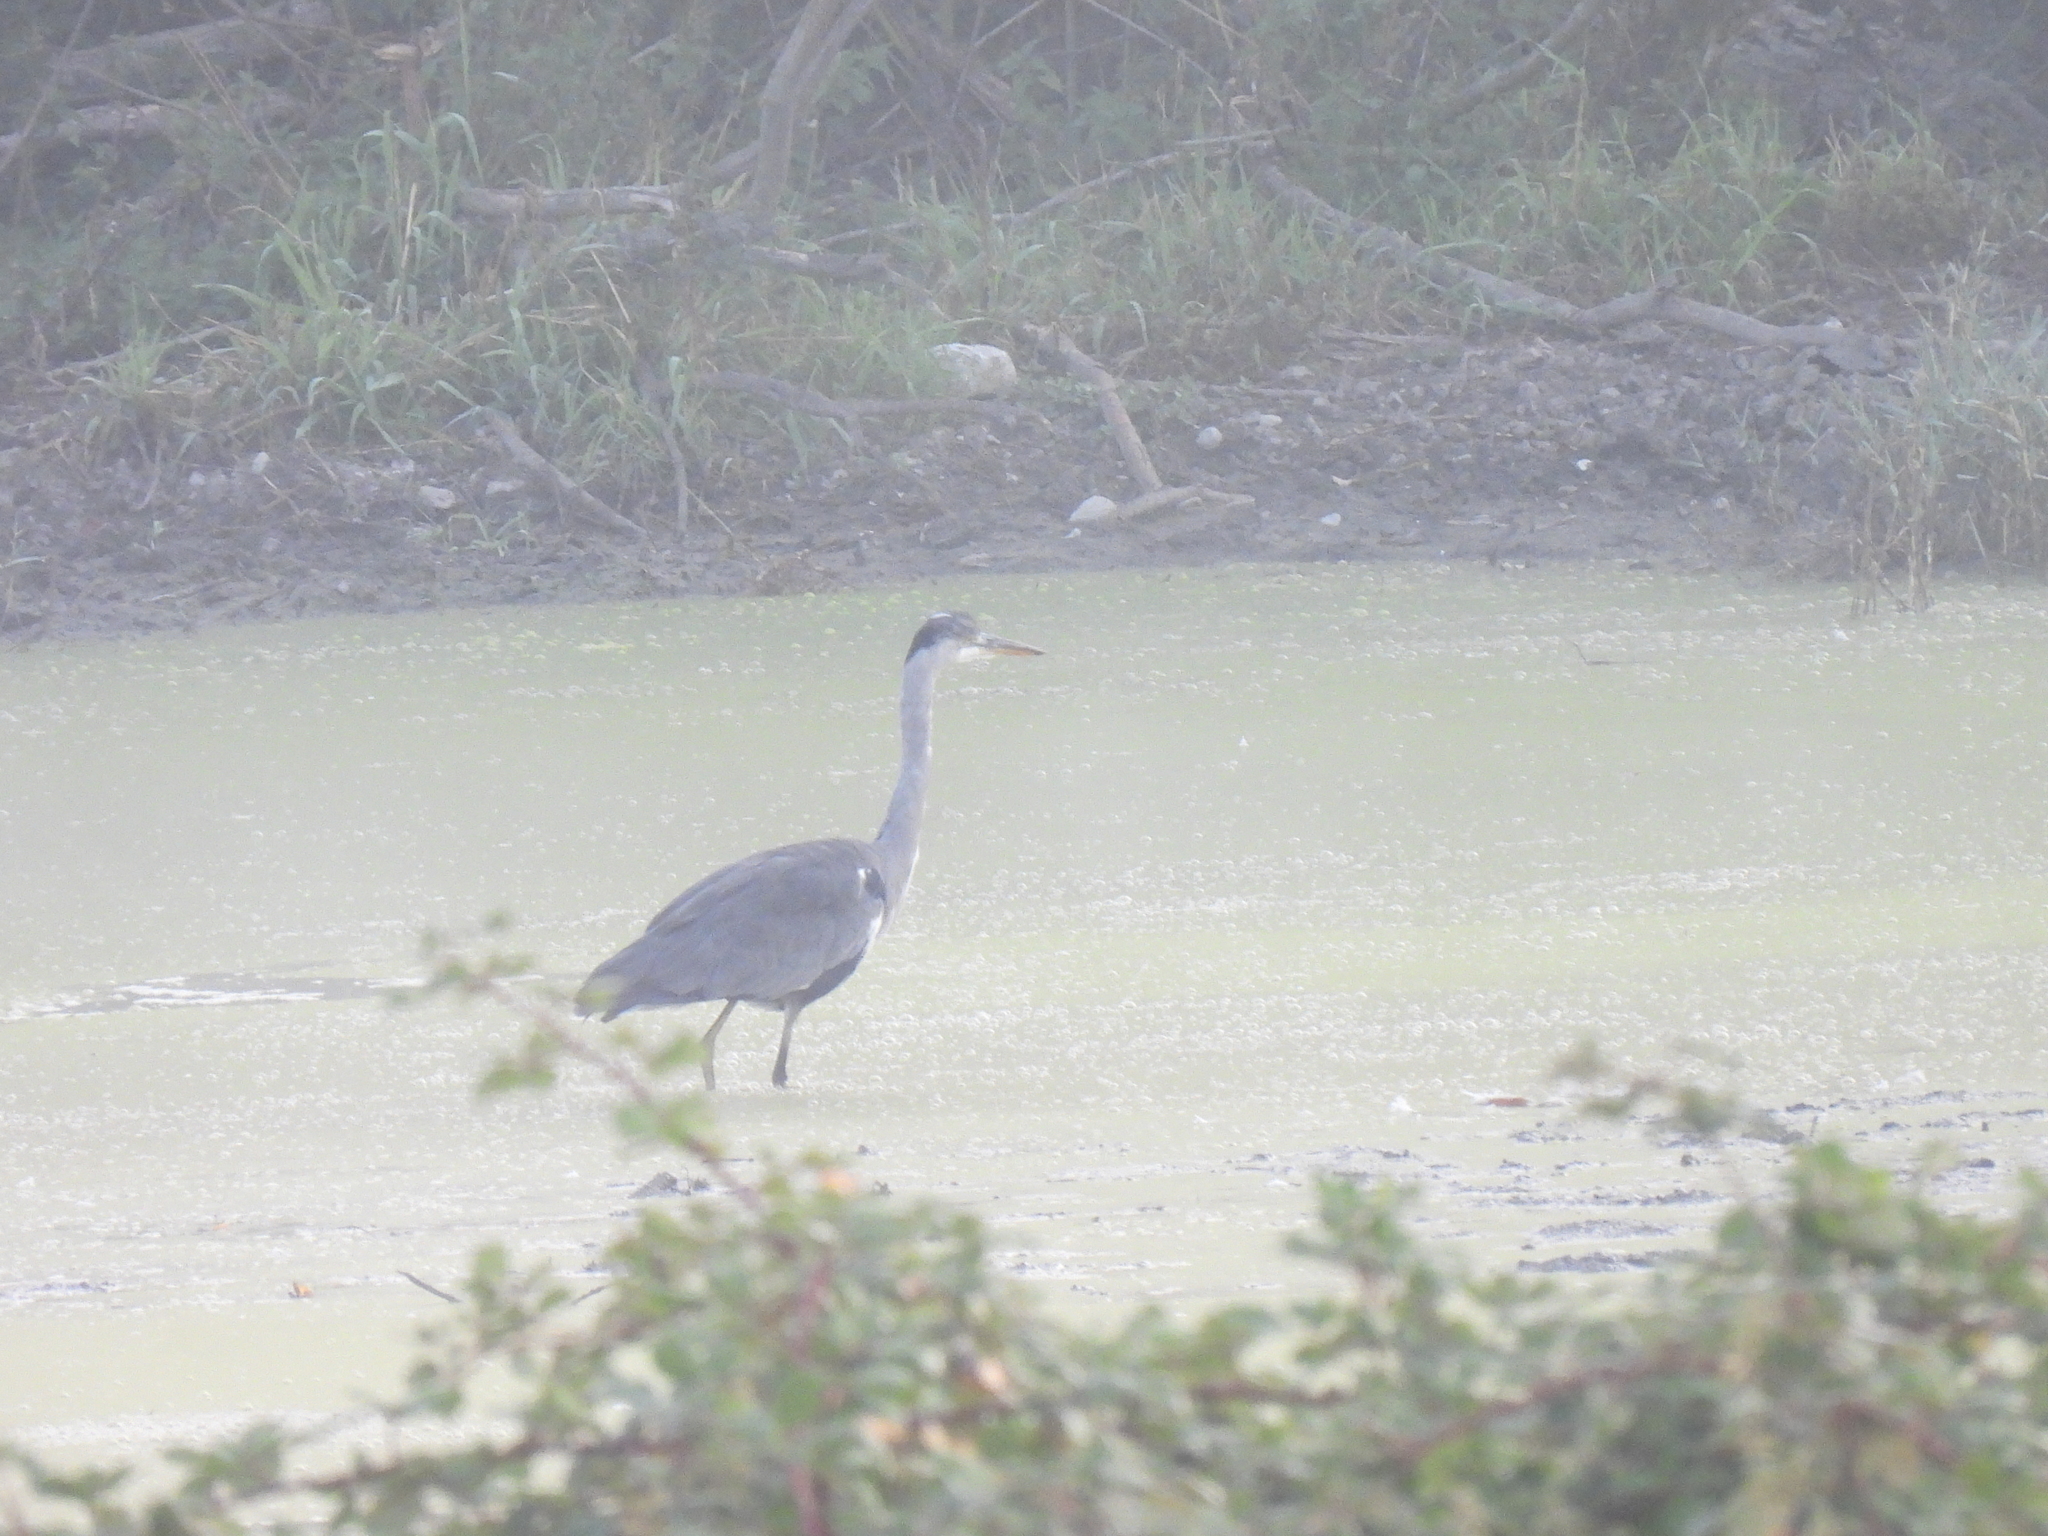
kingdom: Animalia
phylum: Chordata
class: Aves
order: Pelecaniformes
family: Ardeidae
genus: Ardea
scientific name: Ardea cinerea
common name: Grey heron
